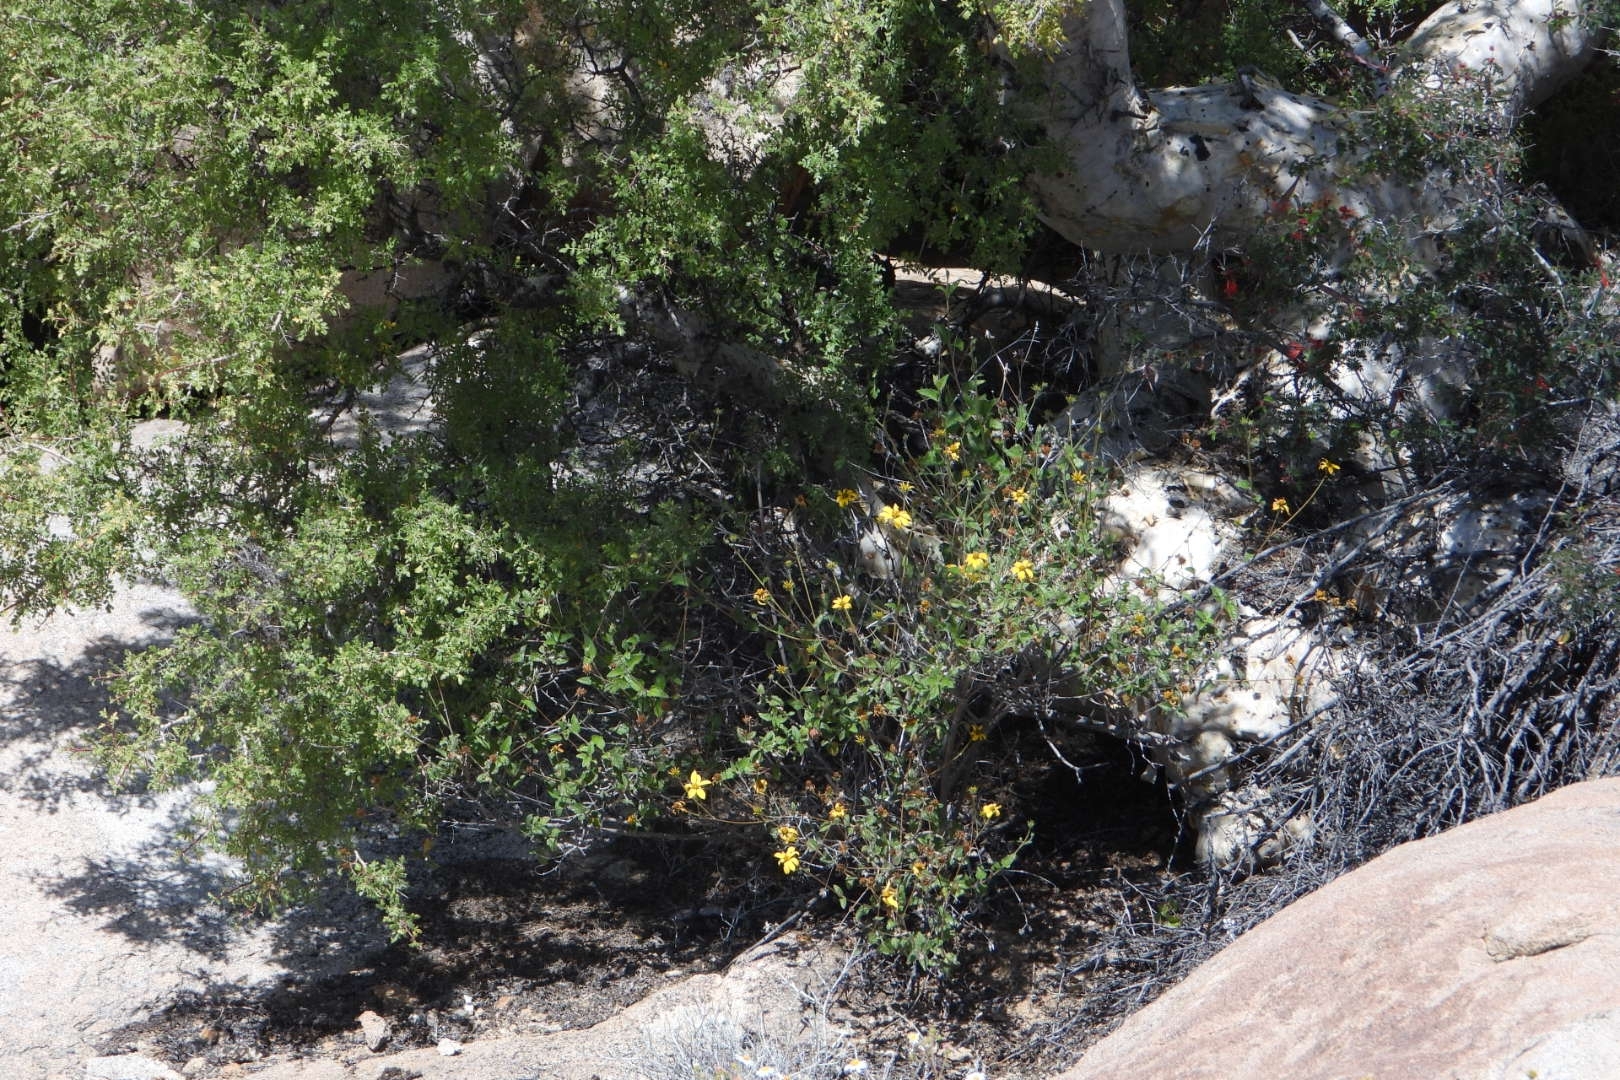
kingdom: Plantae
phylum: Tracheophyta
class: Magnoliopsida
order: Sapindales
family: Anacardiaceae
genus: Pachycormus
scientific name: Pachycormus discolor
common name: Succulent elephant trees
